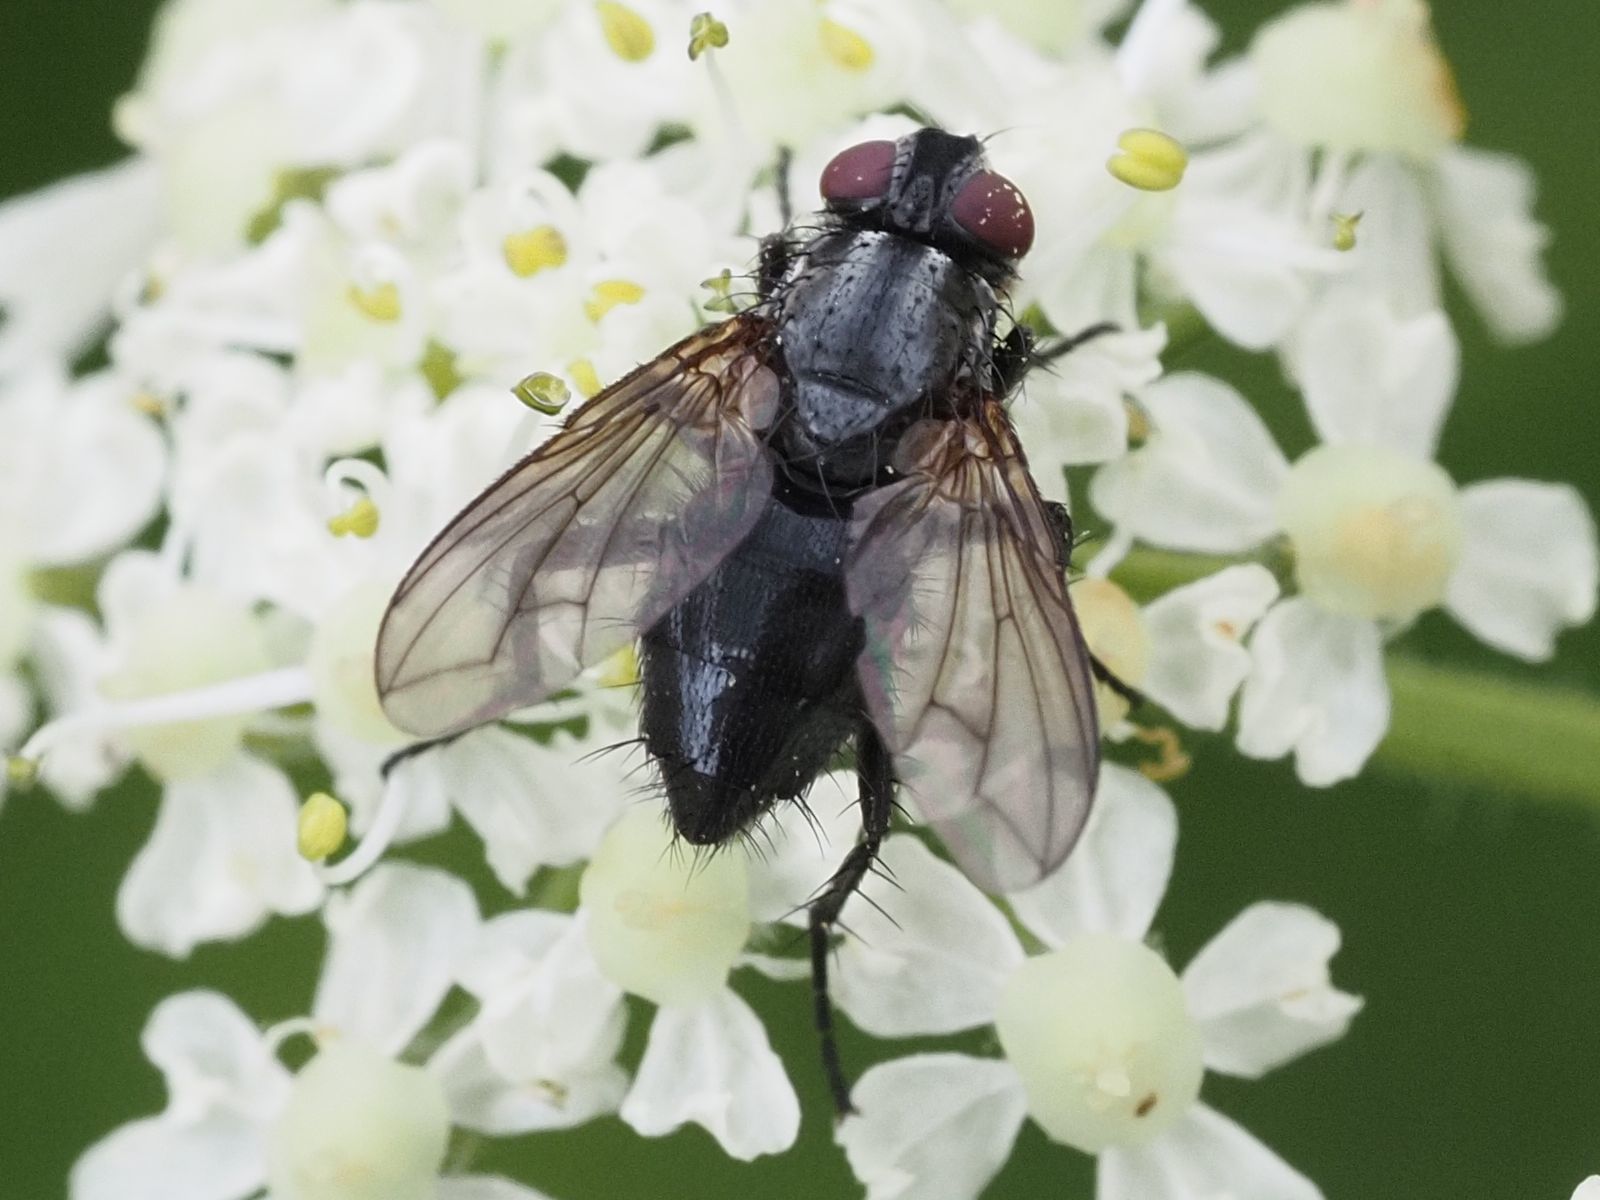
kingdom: Animalia
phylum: Arthropoda
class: Insecta
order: Diptera
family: Calliphoridae
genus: Phyto
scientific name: Phyto melanocephala
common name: Three-striped woodlouse-fly
